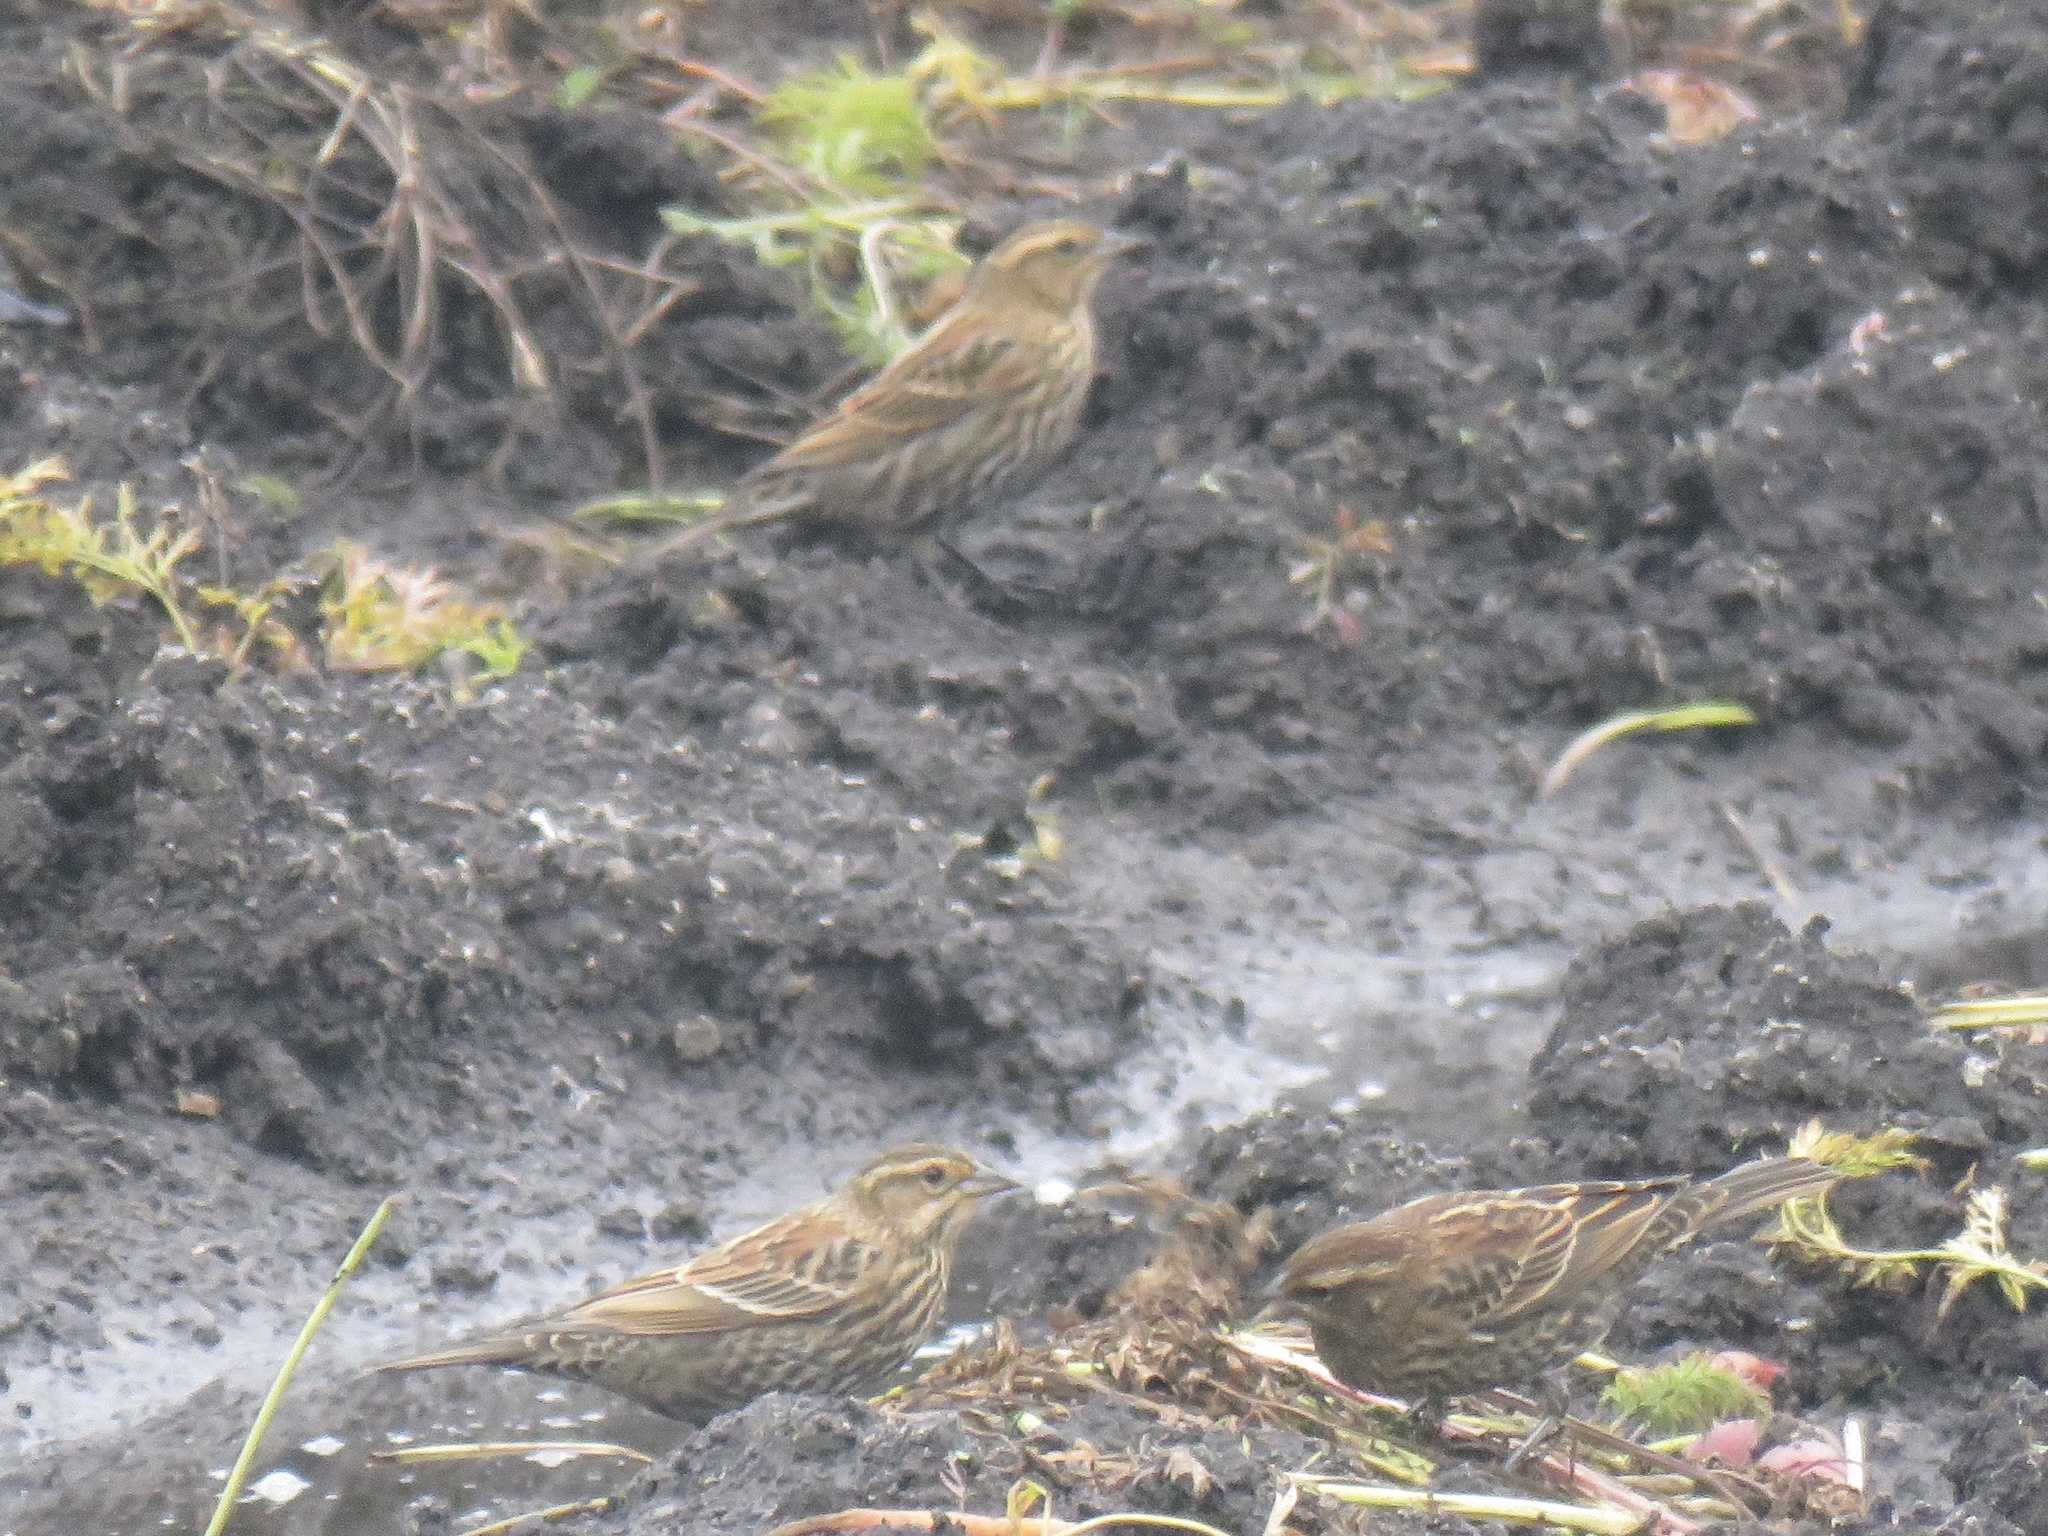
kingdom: Animalia
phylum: Chordata
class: Aves
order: Passeriformes
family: Icteridae
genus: Agelaius
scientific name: Agelaius phoeniceus
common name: Red-winged blackbird
